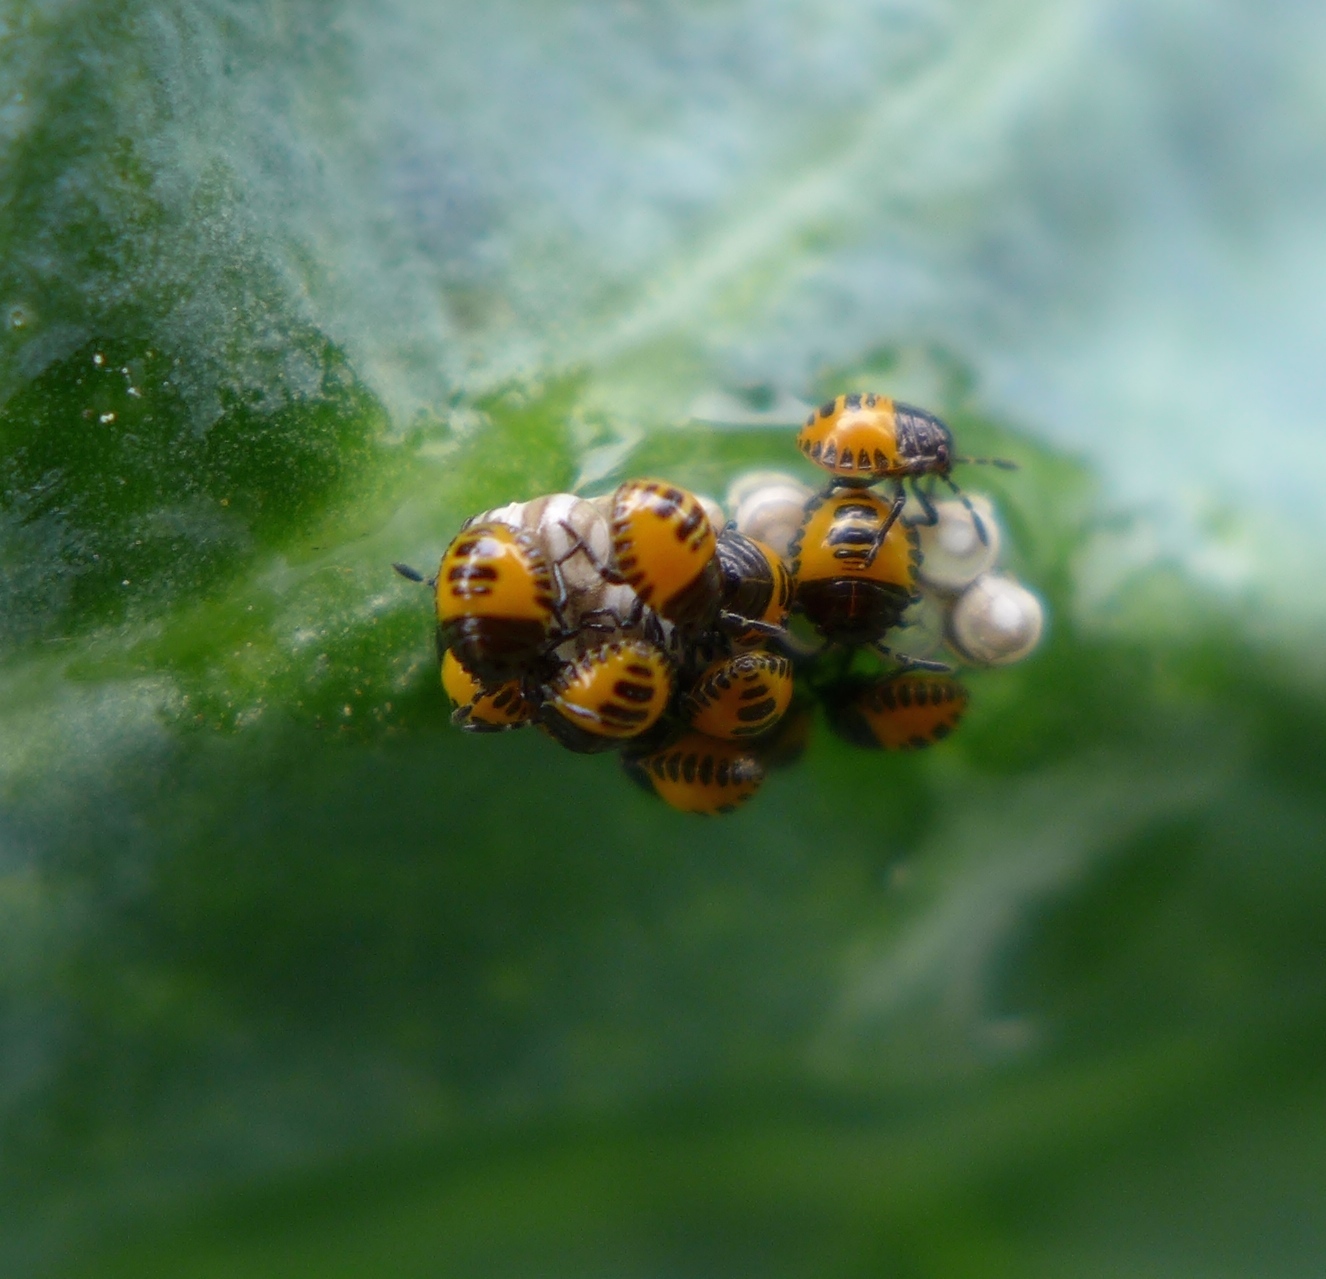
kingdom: Animalia
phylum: Arthropoda
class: Insecta
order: Hemiptera
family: Pentatomidae
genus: Murgantia
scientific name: Murgantia histrionica
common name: Harlequin bug
